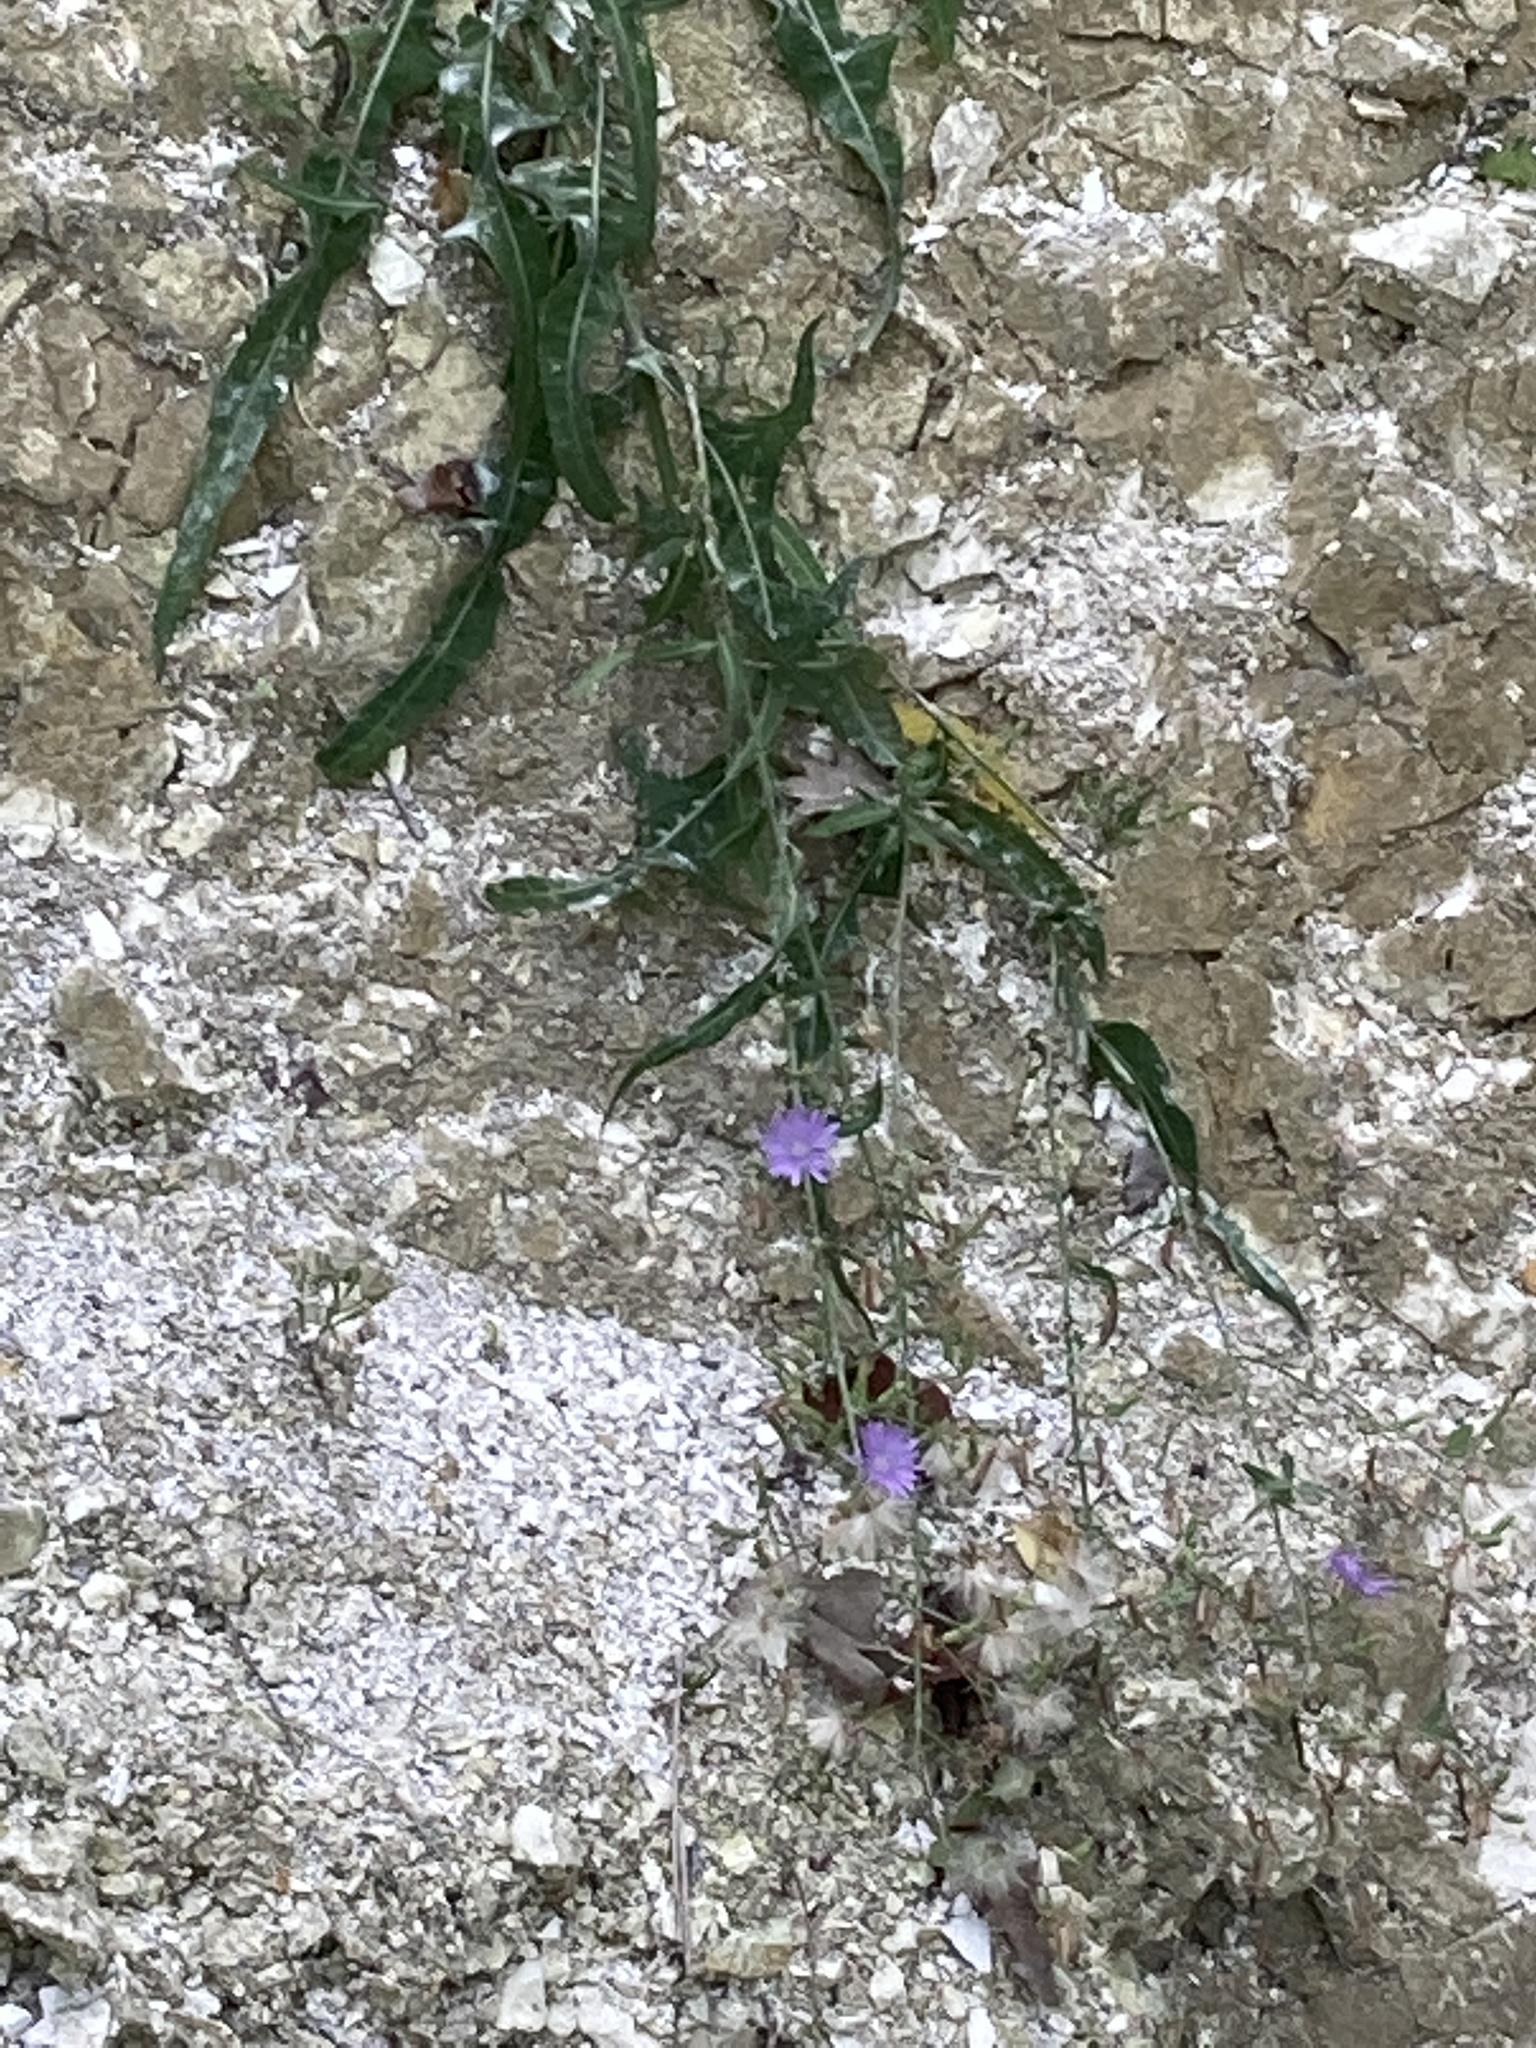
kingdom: Plantae
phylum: Tracheophyta
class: Magnoliopsida
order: Asterales
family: Asteraceae
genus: Lactuca
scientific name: Lactuca tatarica
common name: Blue lettuce
